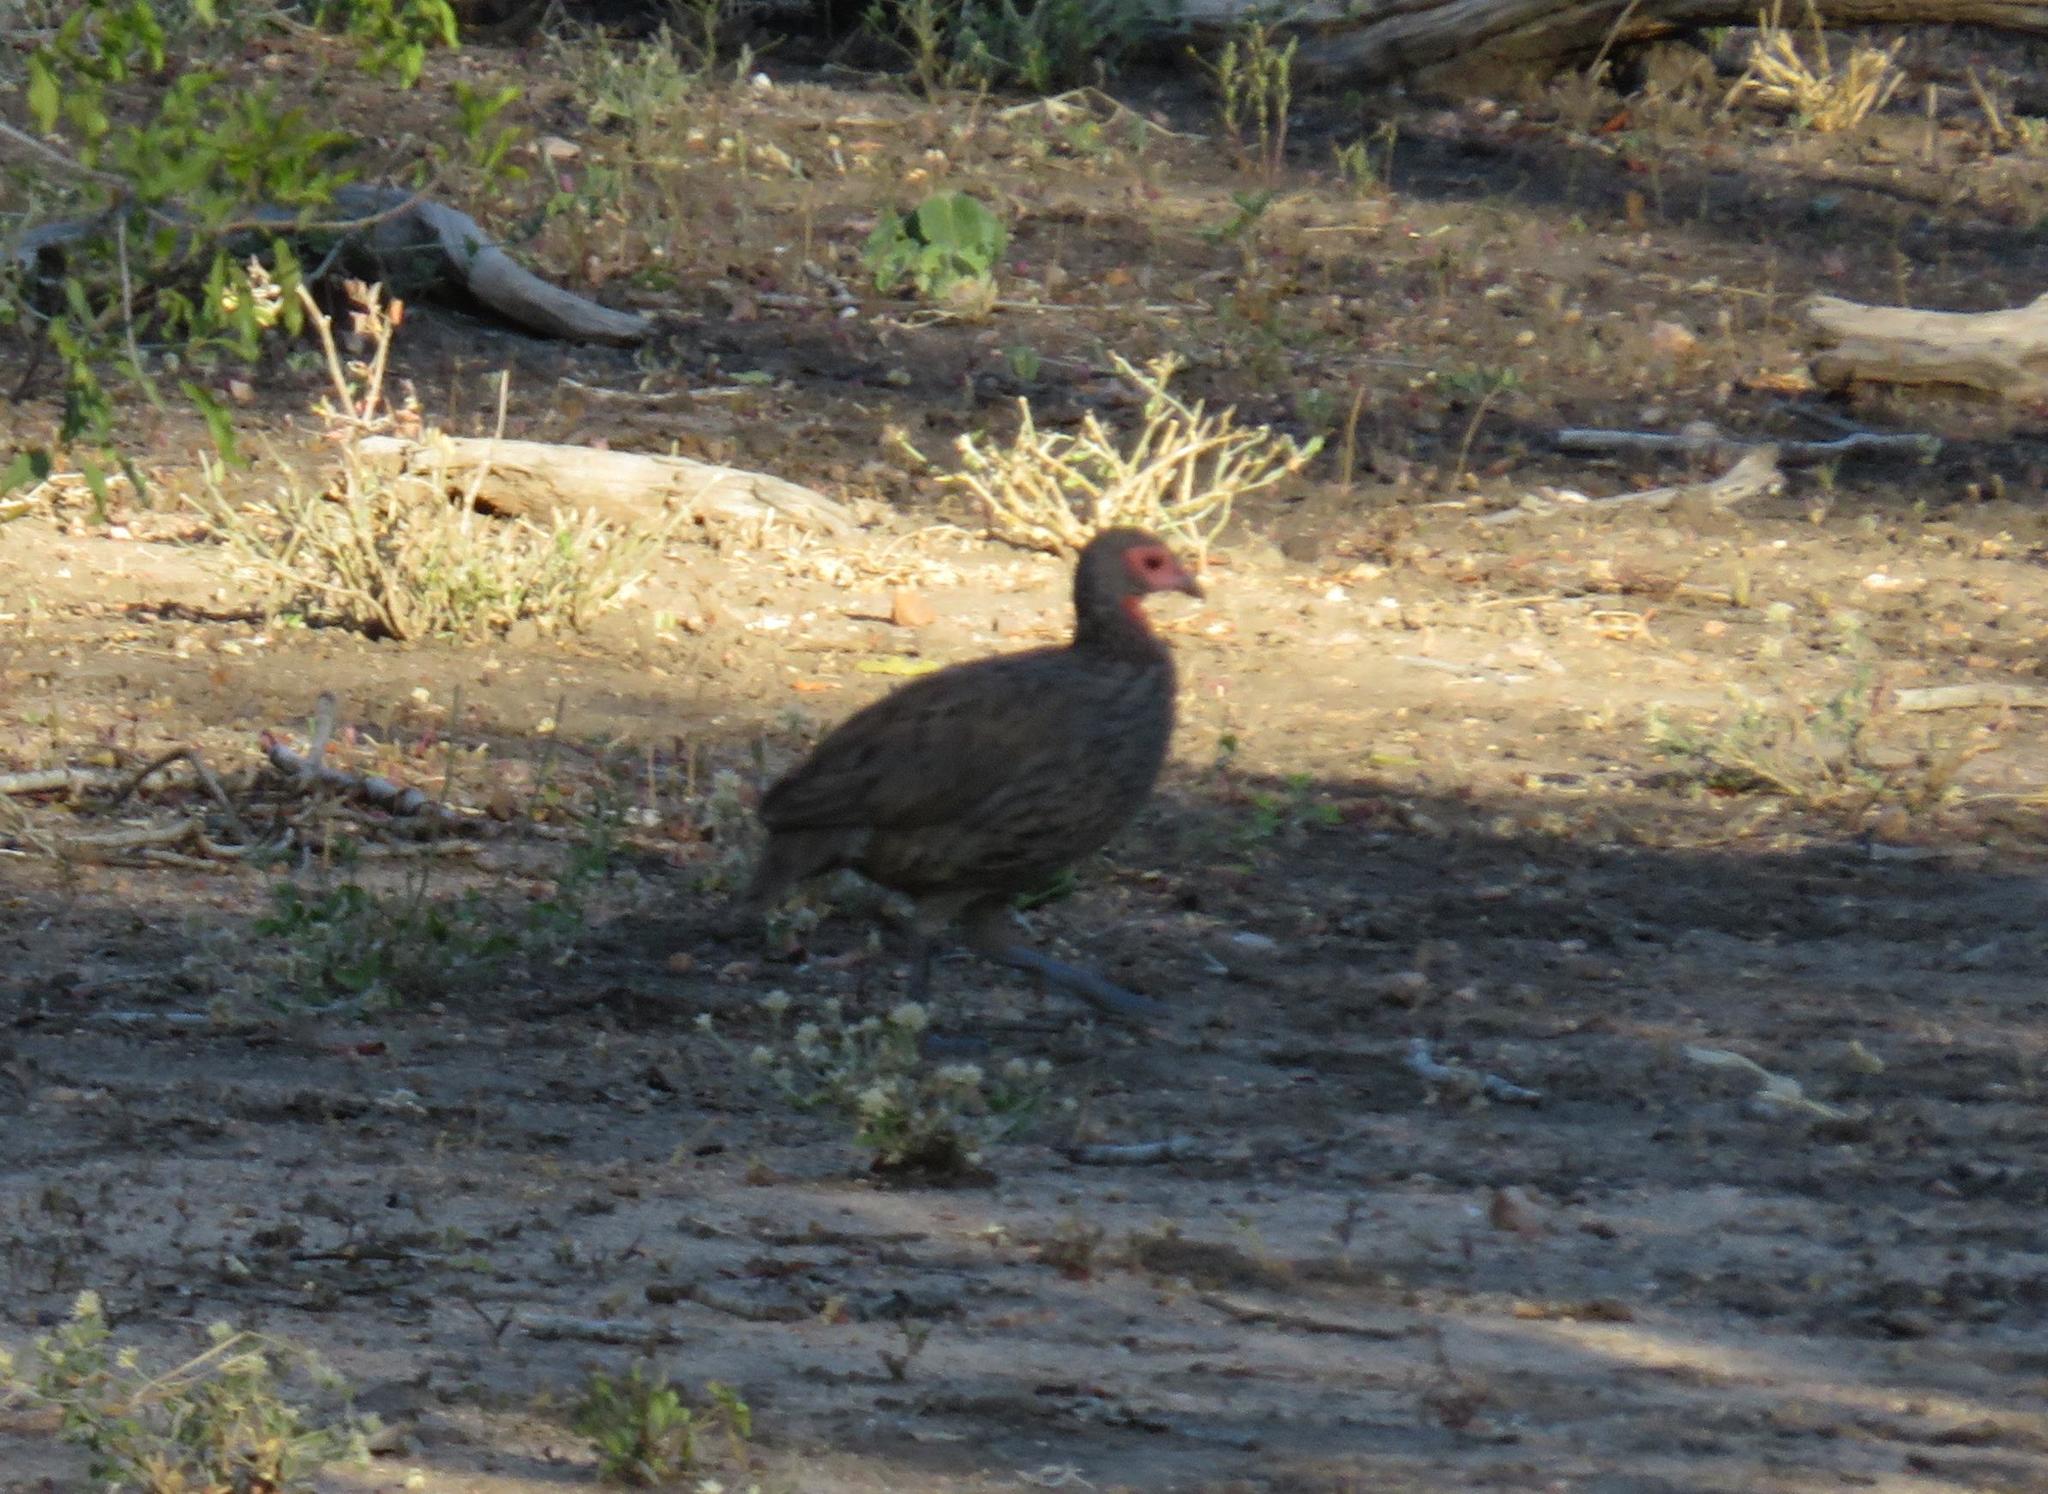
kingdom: Animalia
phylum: Chordata
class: Aves
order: Galliformes
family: Phasianidae
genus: Pternistis
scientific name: Pternistis swainsonii
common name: Swainson's spurfowl
